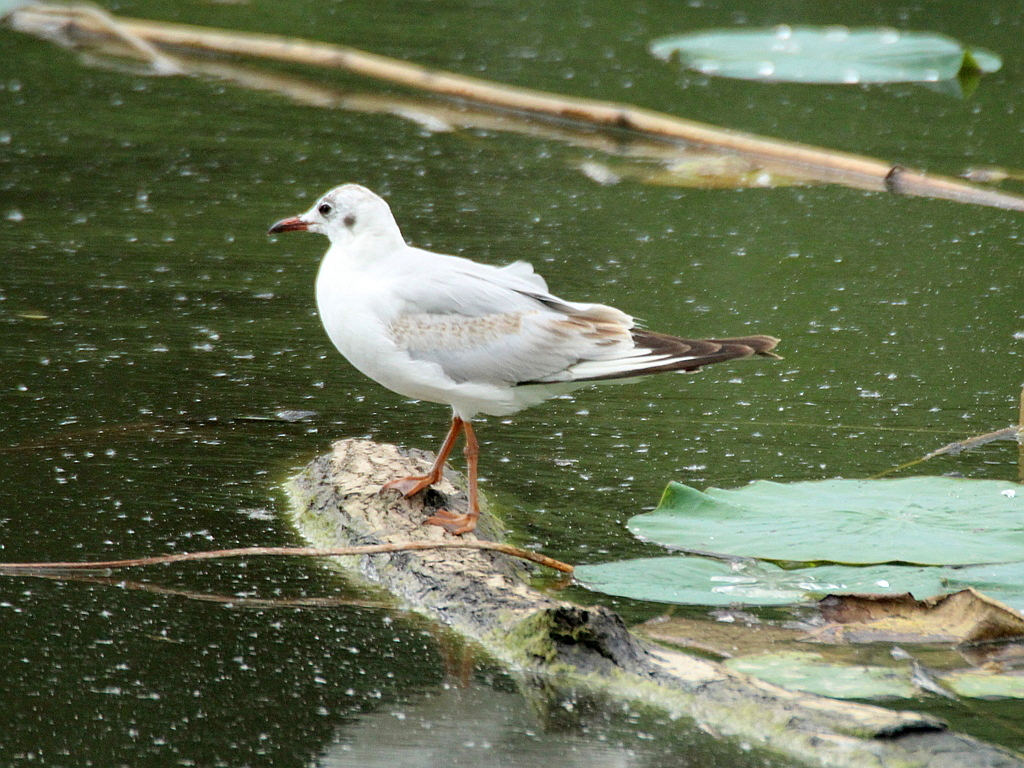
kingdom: Animalia
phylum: Chordata
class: Aves
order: Charadriiformes
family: Laridae
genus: Chroicocephalus
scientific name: Chroicocephalus ridibundus
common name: Black-headed gull
